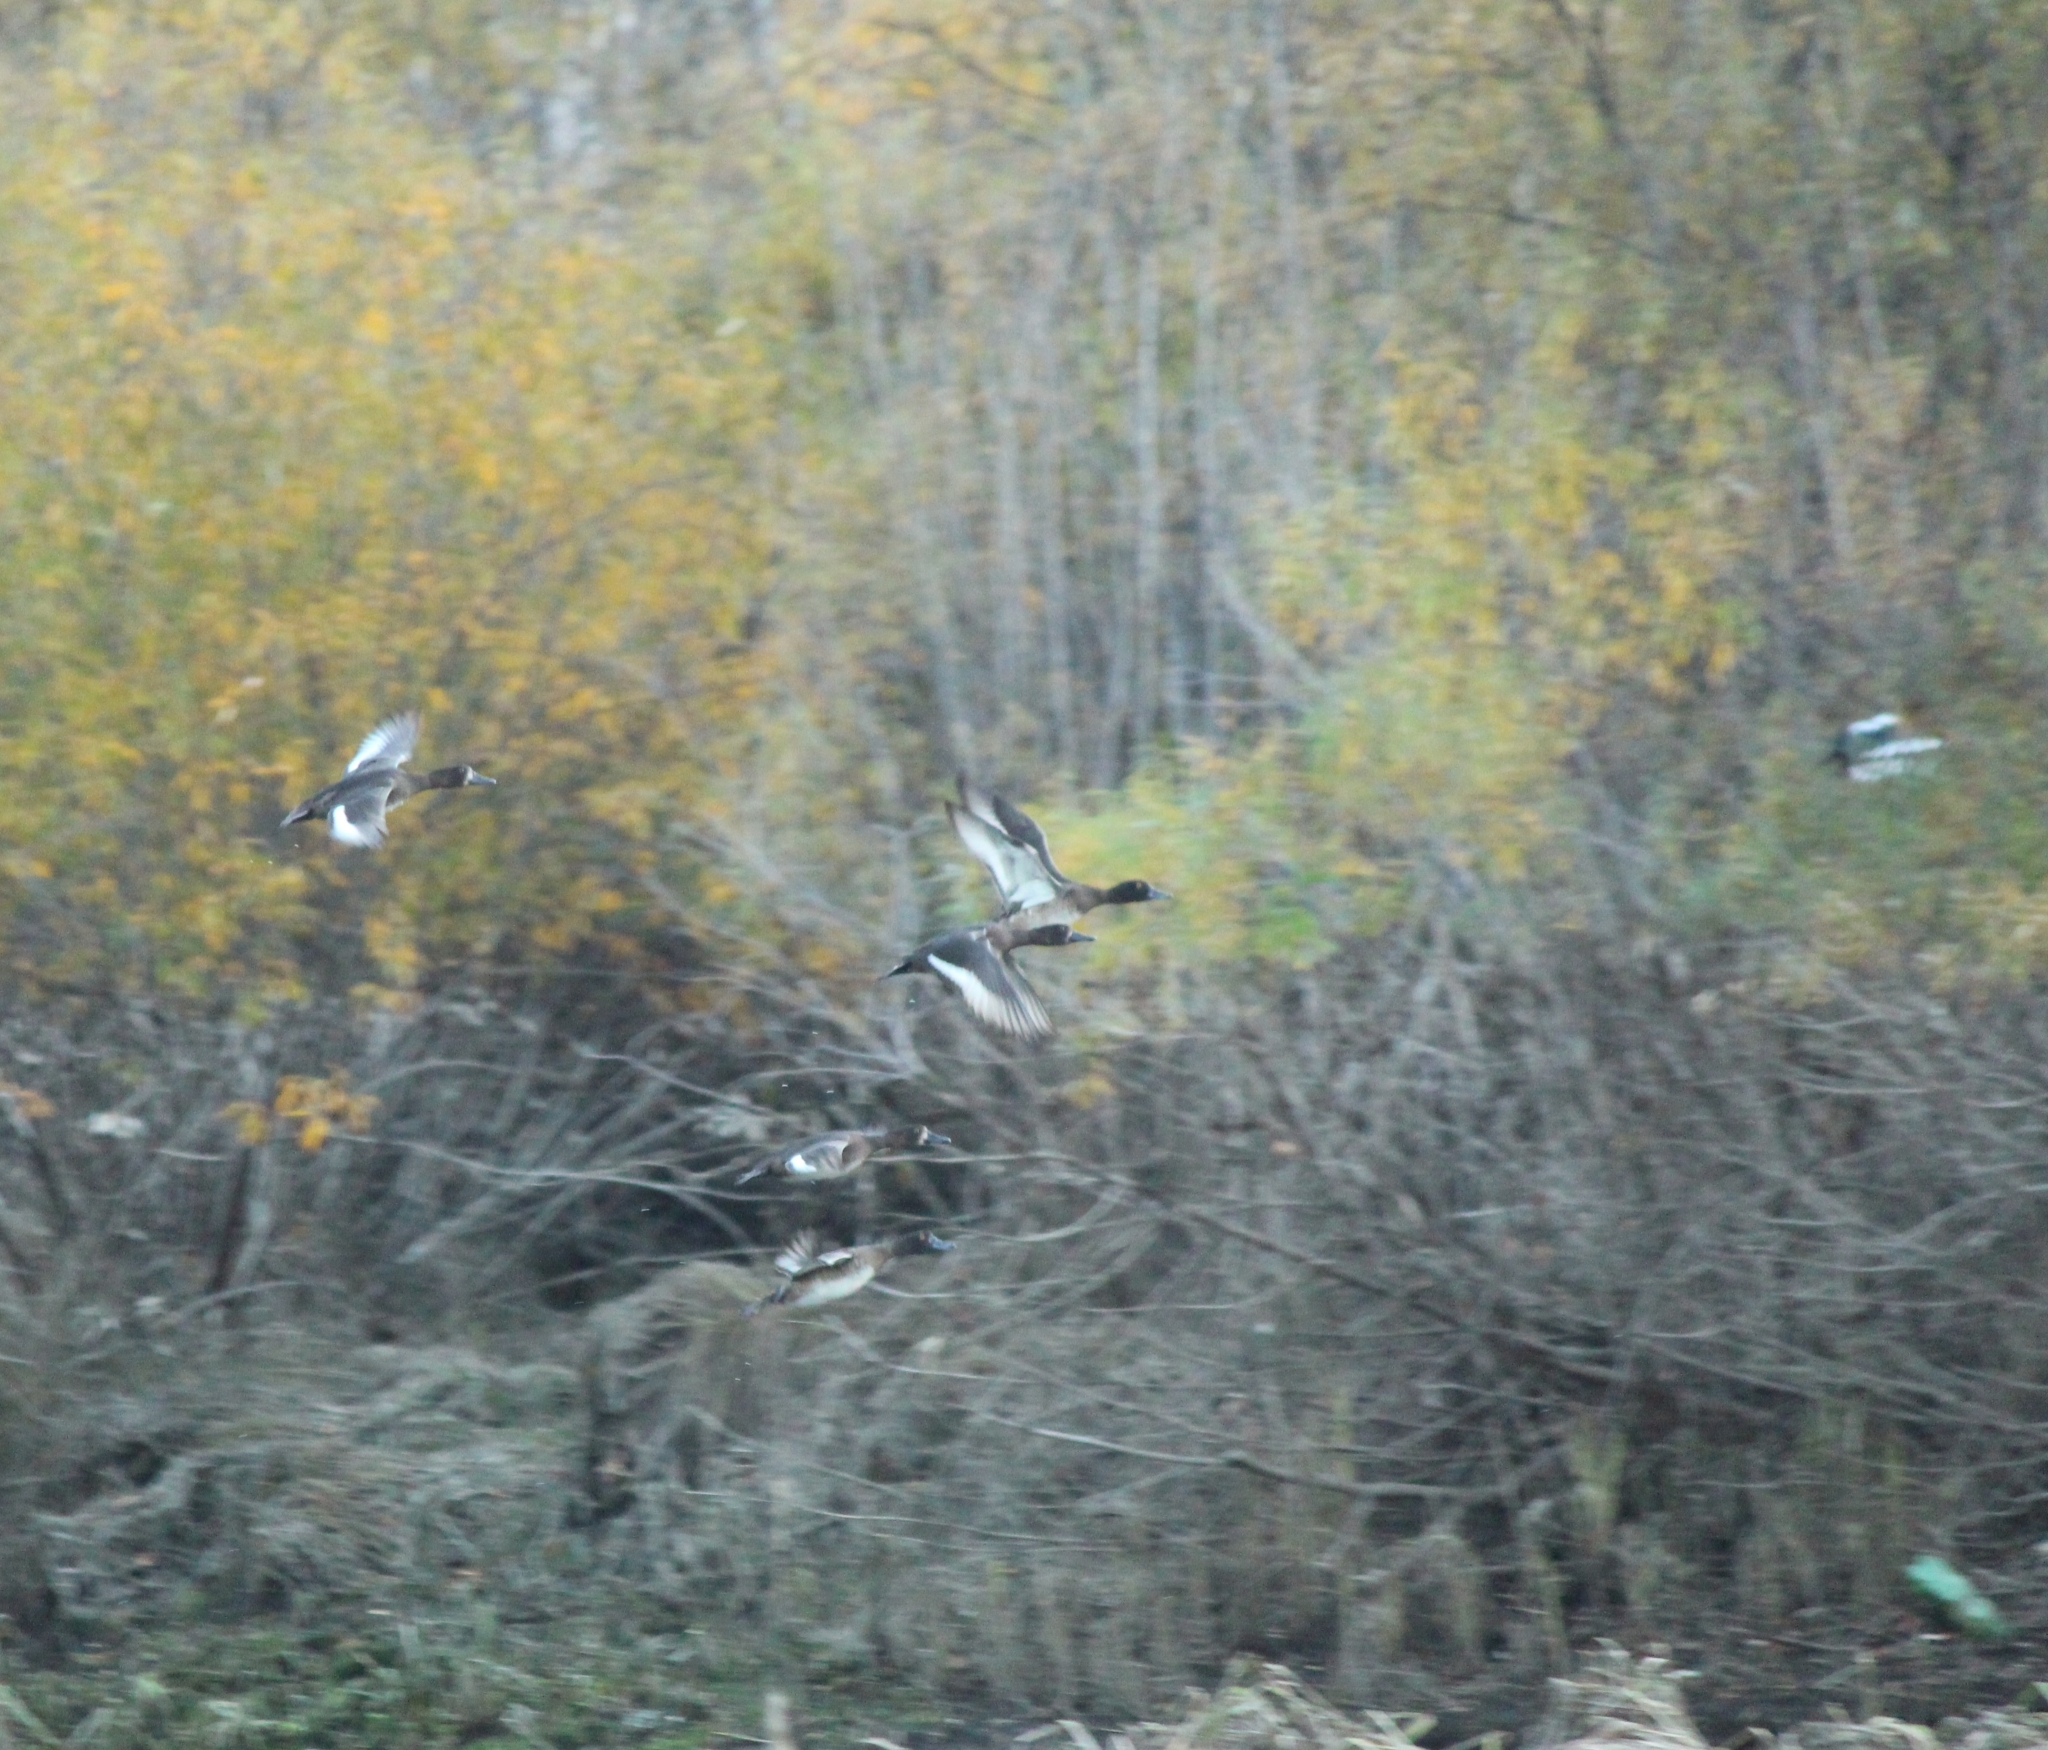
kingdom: Animalia
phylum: Chordata
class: Aves
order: Anseriformes
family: Anatidae
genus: Aythya
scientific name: Aythya fuligula
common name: Tufted duck
